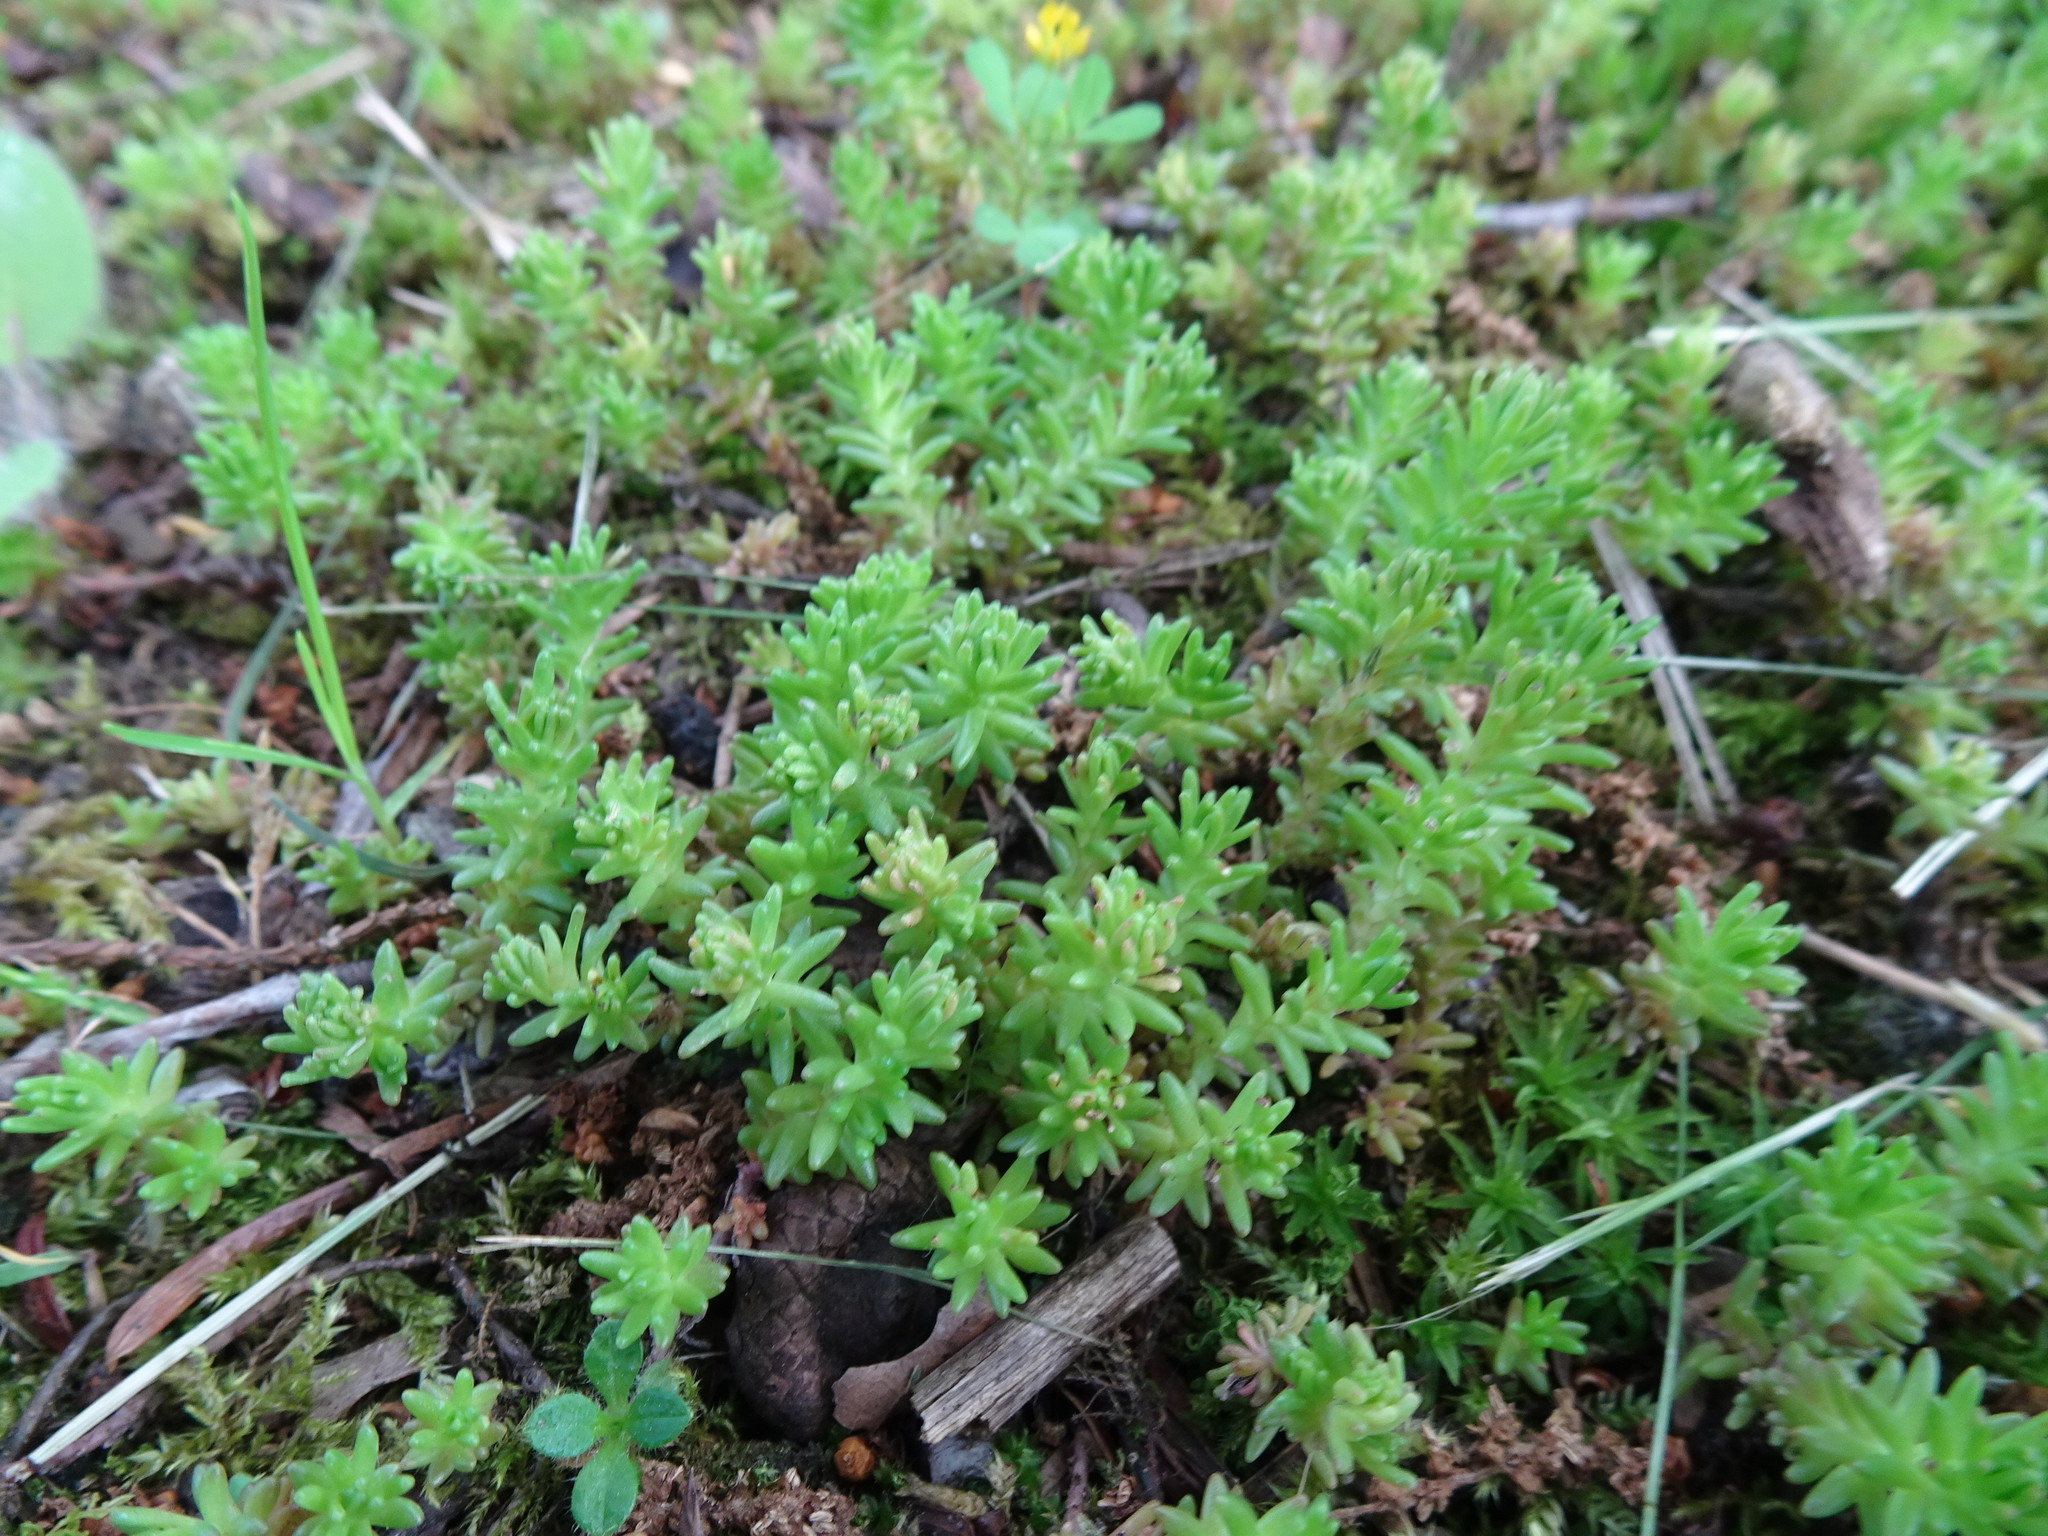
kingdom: Plantae
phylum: Tracheophyta
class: Magnoliopsida
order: Saxifragales
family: Crassulaceae
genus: Sedum
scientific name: Sedum sexangulare
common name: Tasteless stonecrop
